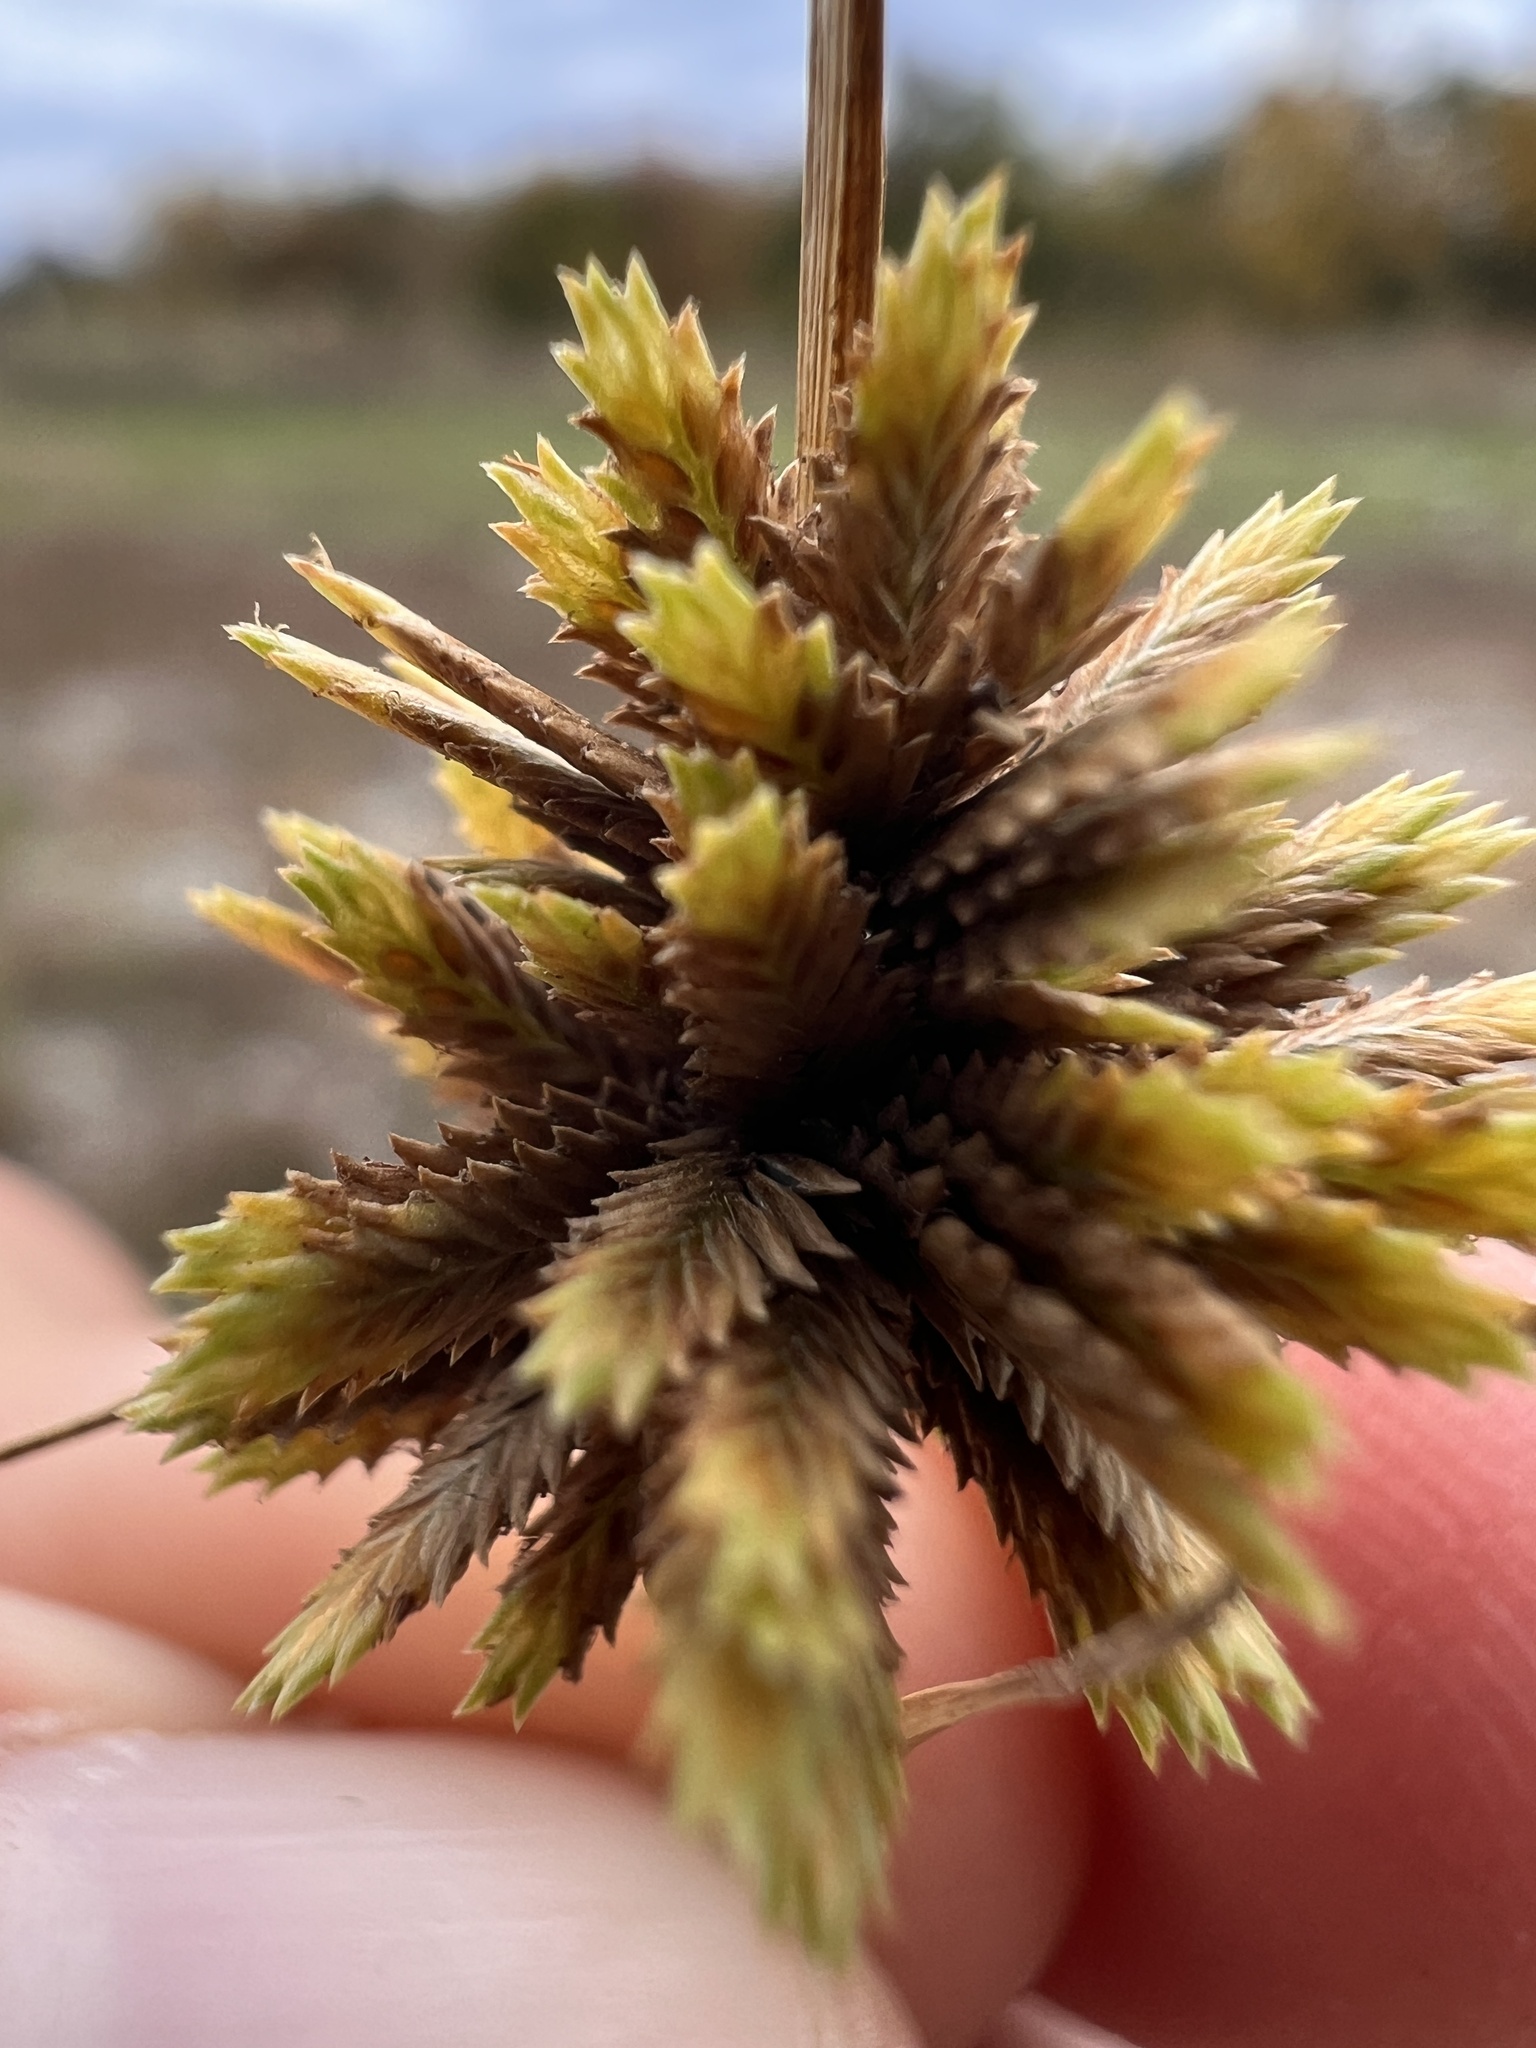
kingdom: Plantae
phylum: Tracheophyta
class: Liliopsida
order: Poales
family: Cyperaceae
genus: Cyperus
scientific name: Cyperus acuminatus
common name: Short-pointed cyperus
